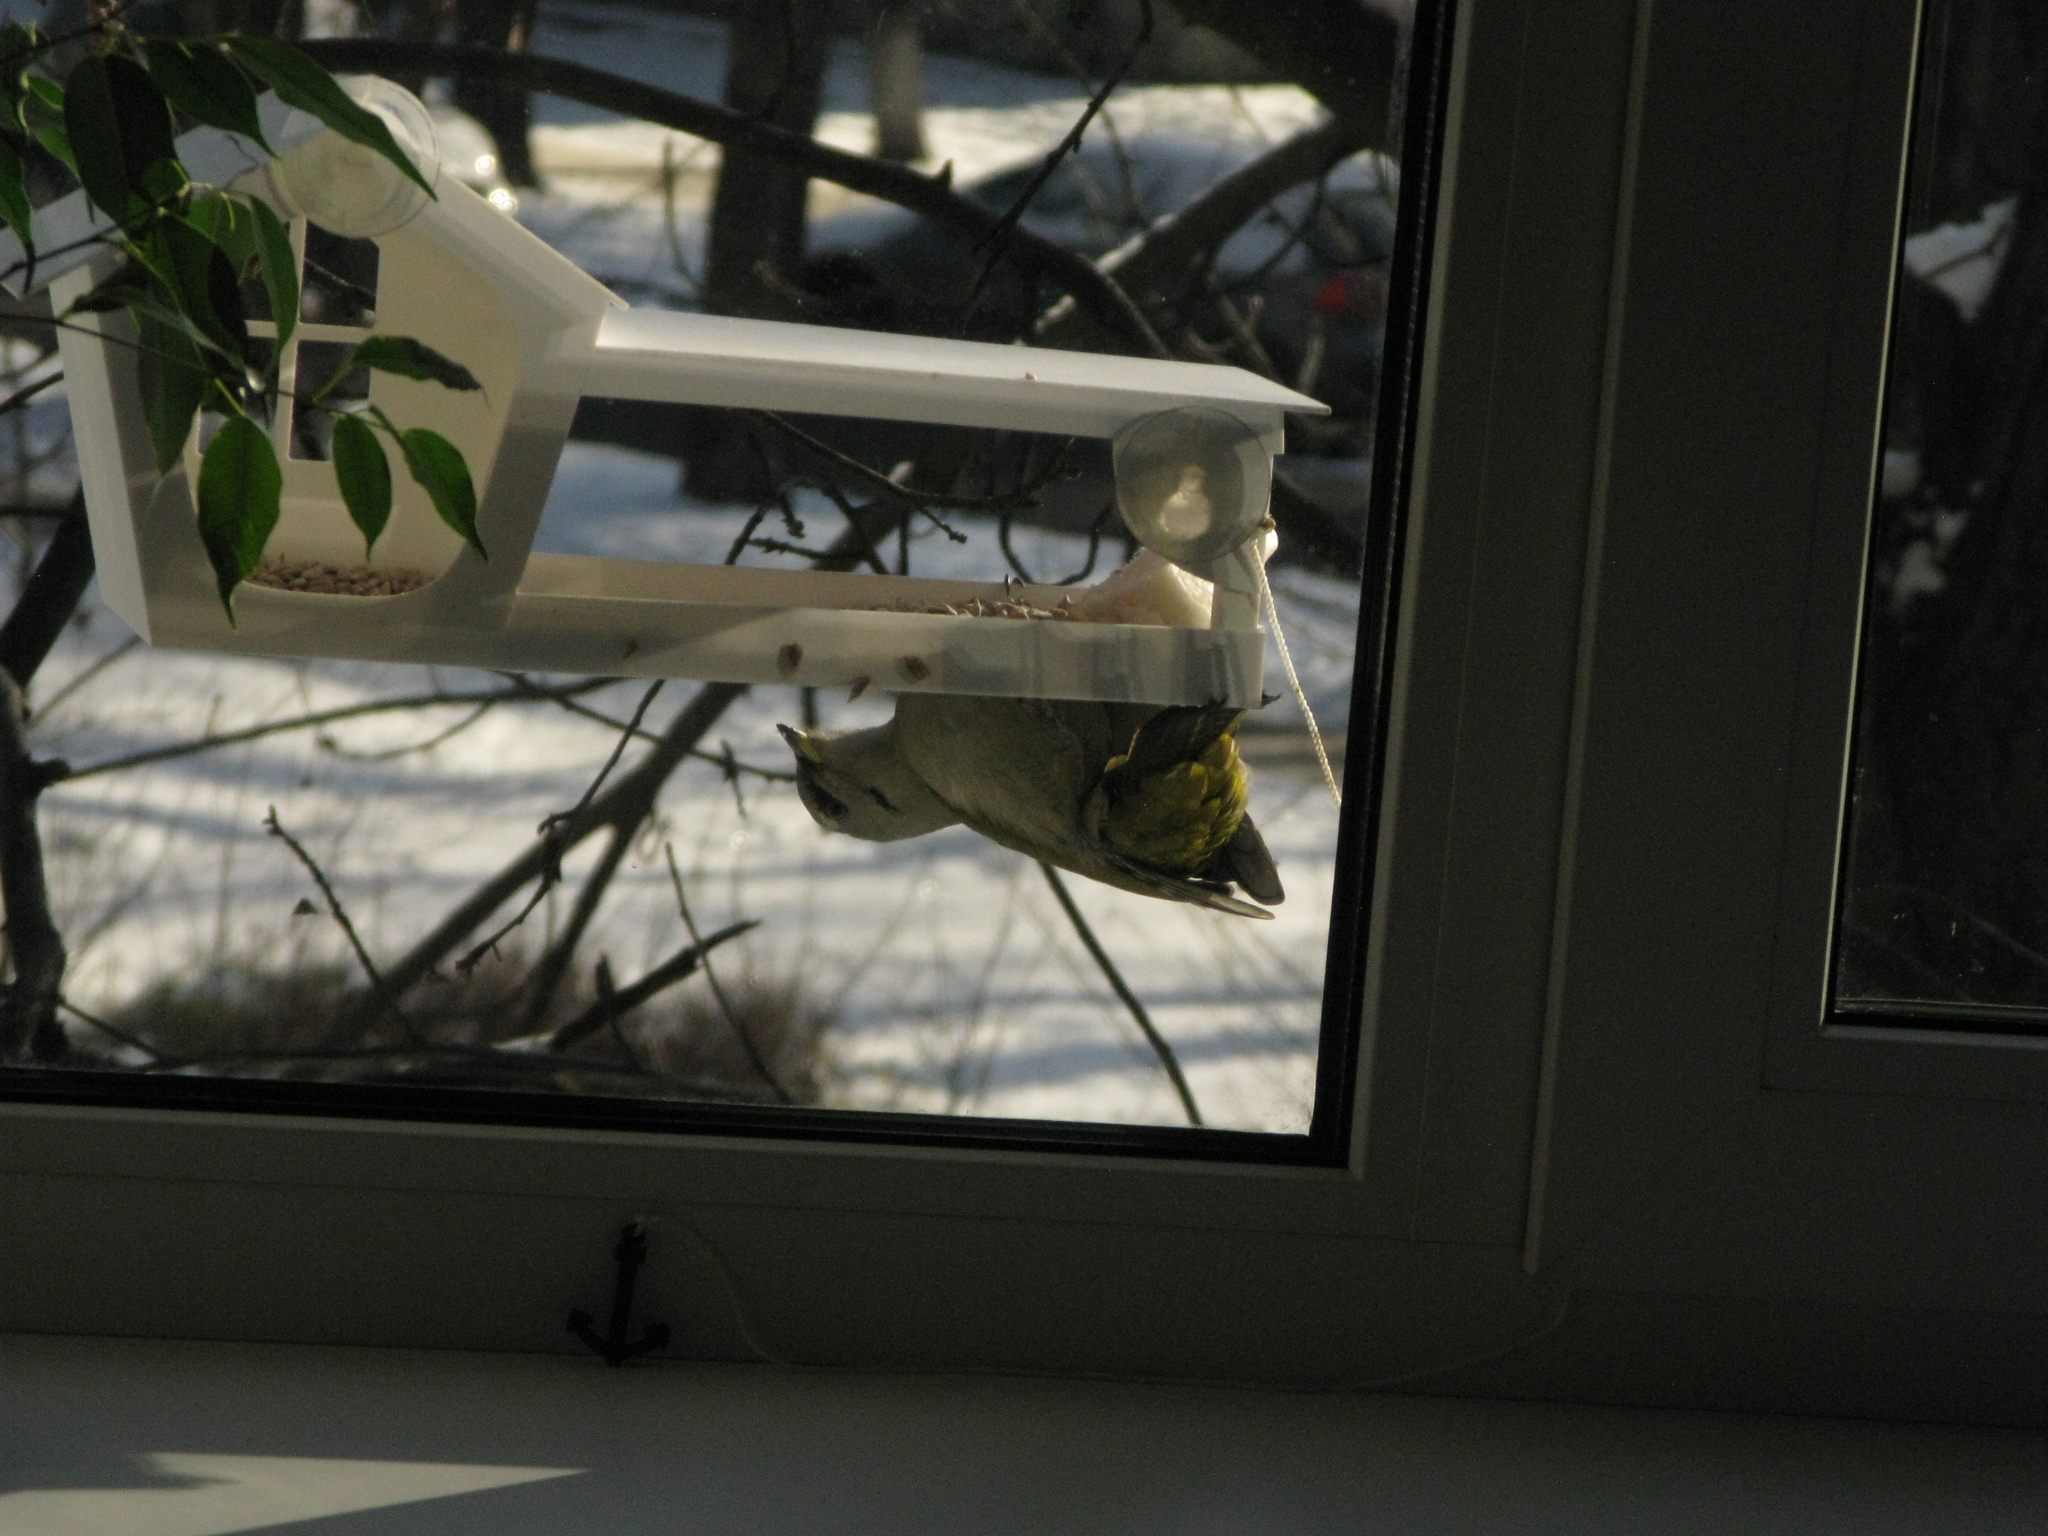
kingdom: Animalia
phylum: Chordata
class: Aves
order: Piciformes
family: Picidae
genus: Picus
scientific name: Picus canus
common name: Grey-headed woodpecker
